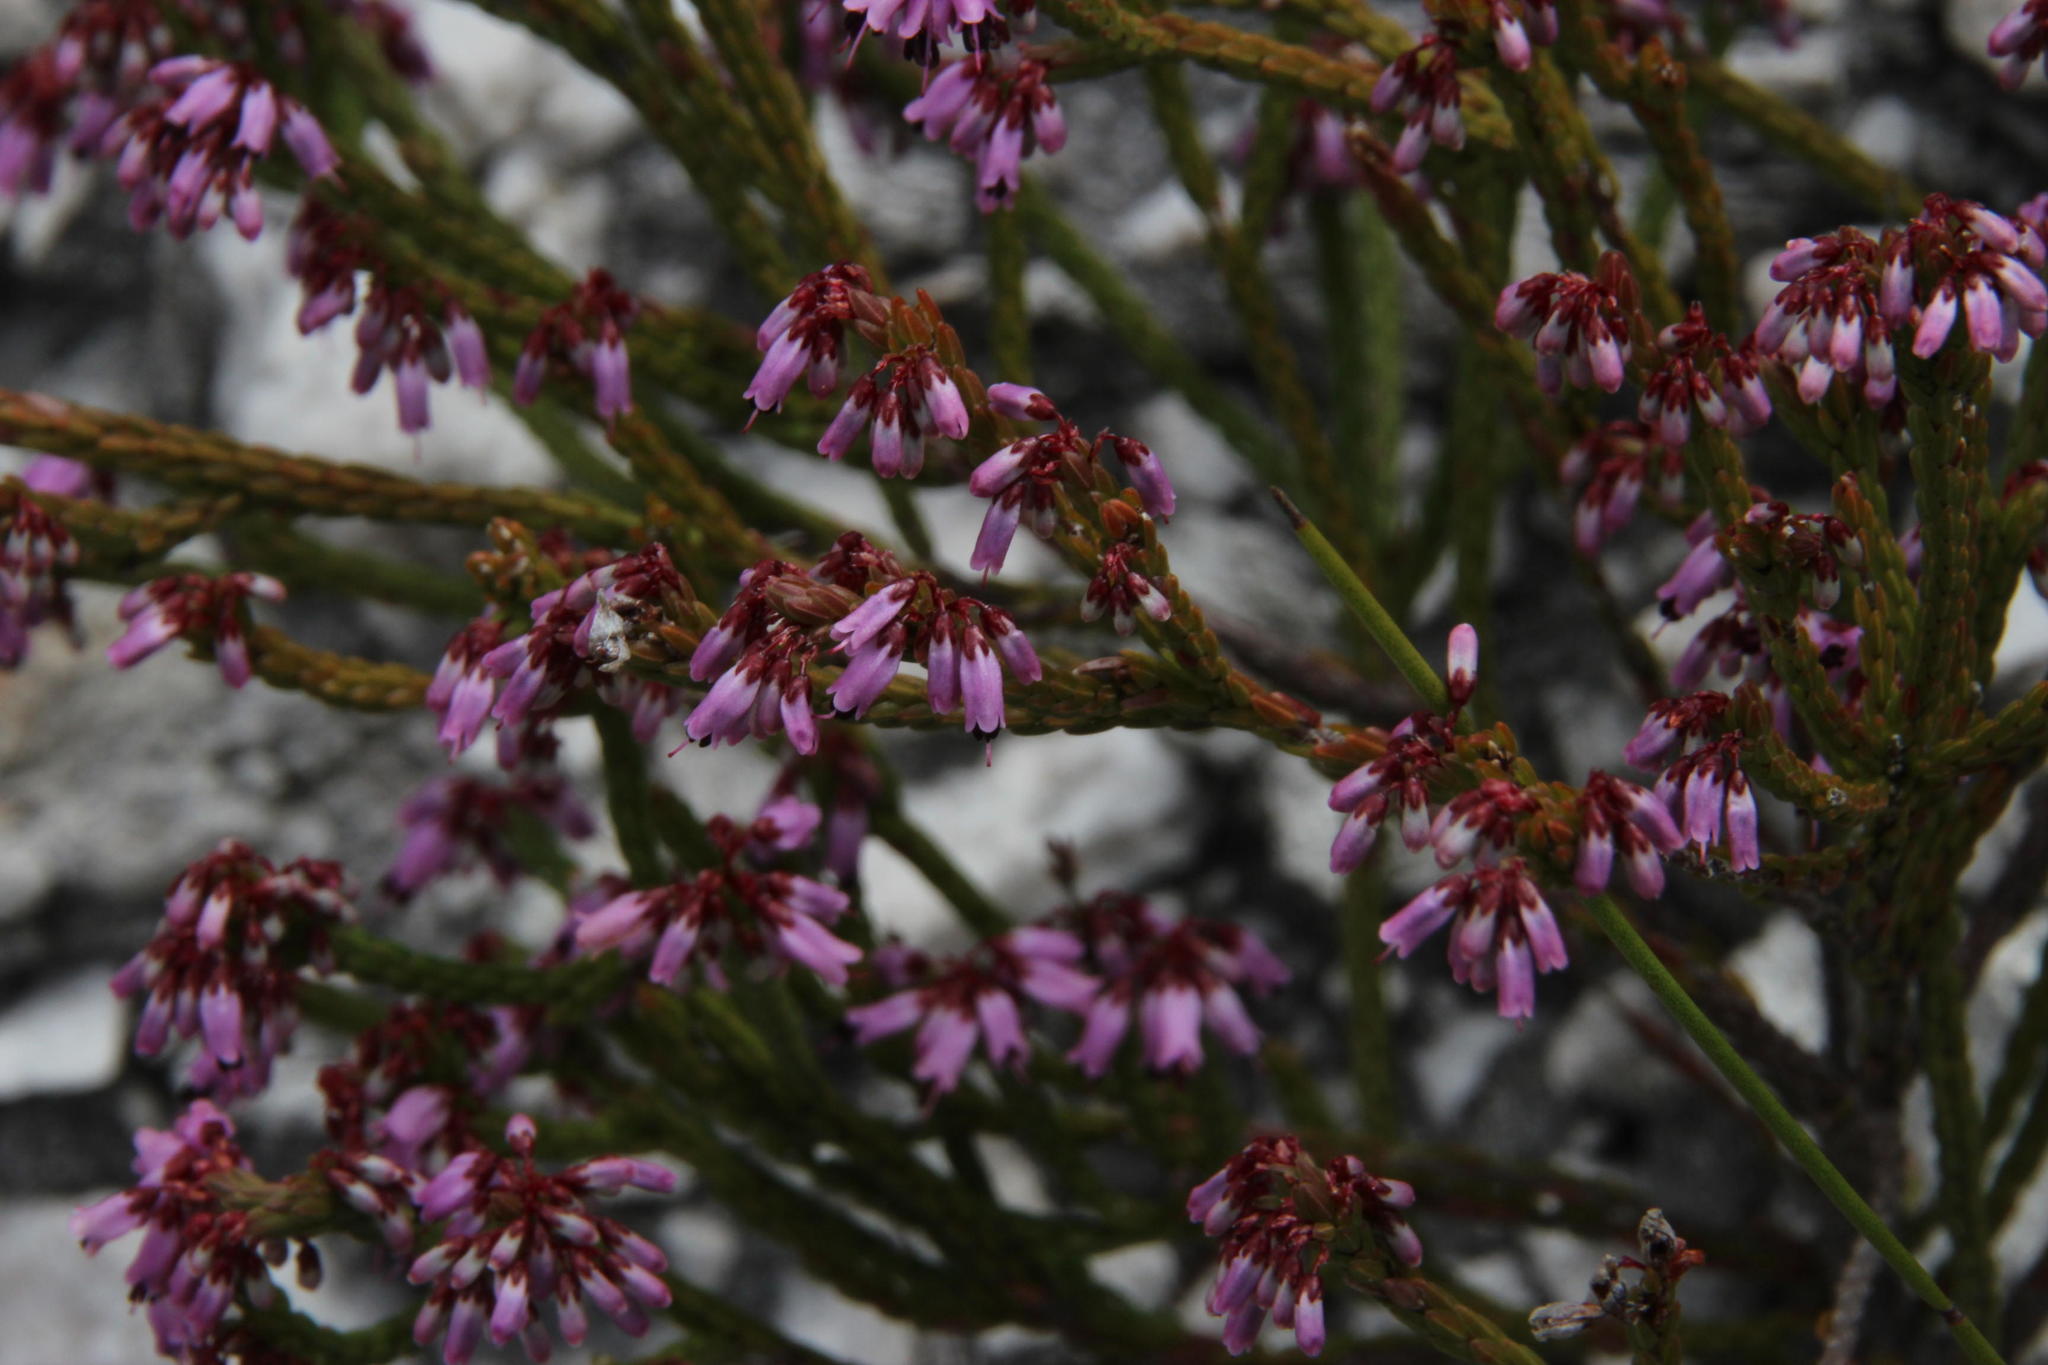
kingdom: Plantae
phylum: Tracheophyta
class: Magnoliopsida
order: Ericales
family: Ericaceae
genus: Erica
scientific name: Erica equisetifolia
